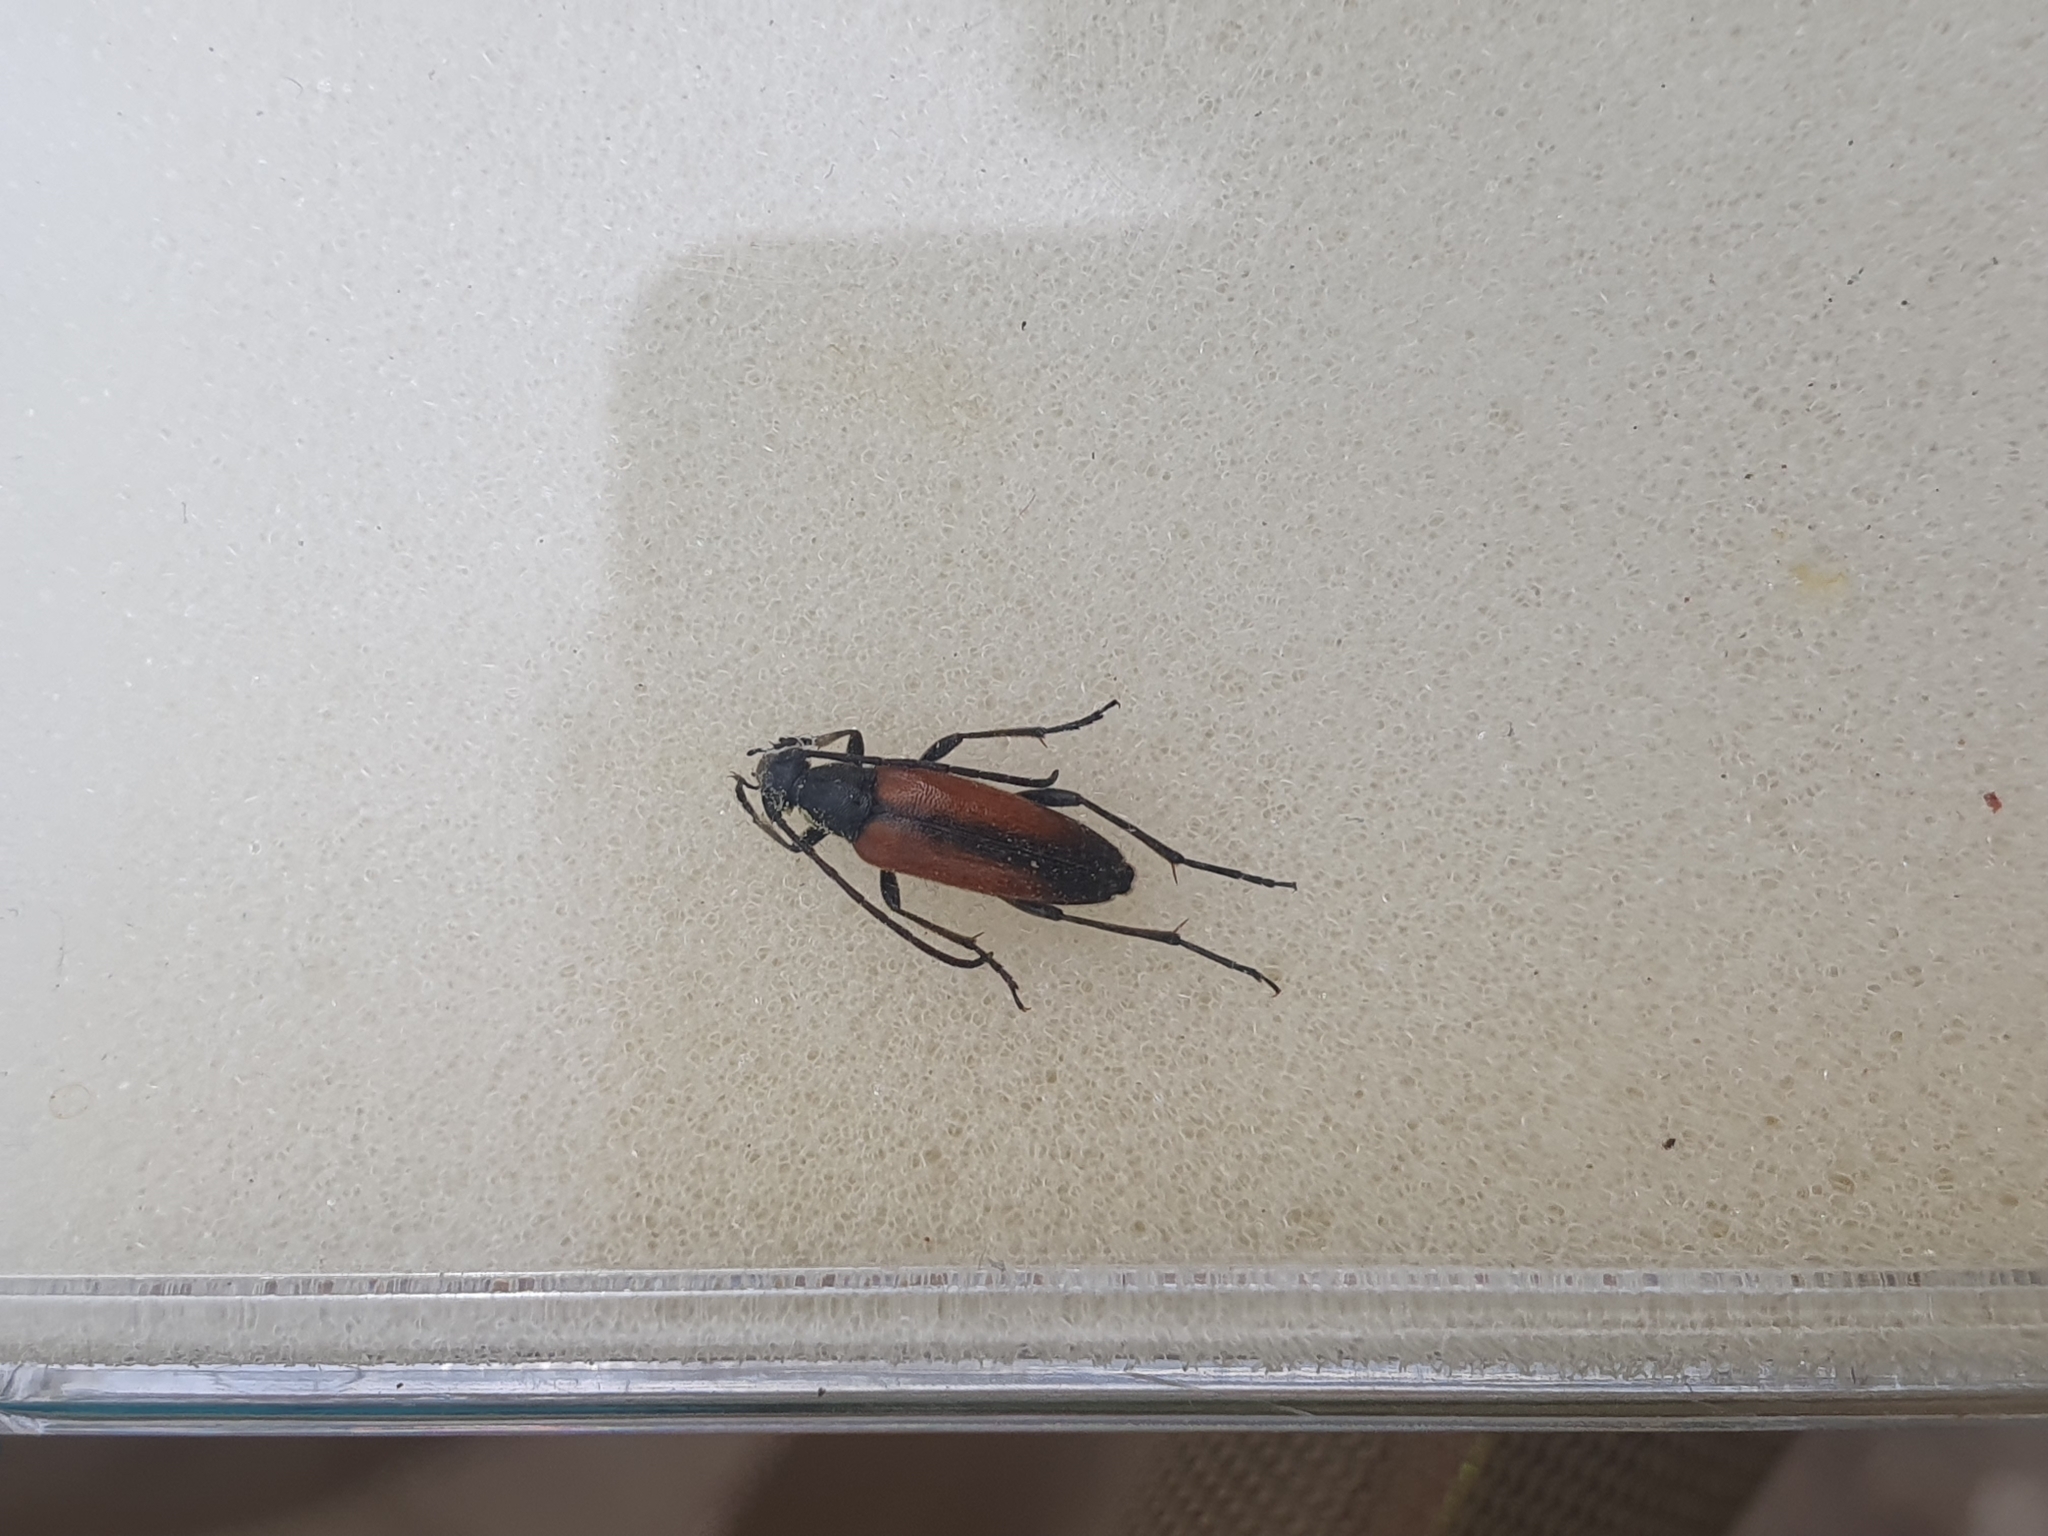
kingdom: Animalia
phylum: Arthropoda
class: Insecta
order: Coleoptera
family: Cerambycidae
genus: Stenurella
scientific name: Stenurella melanura
